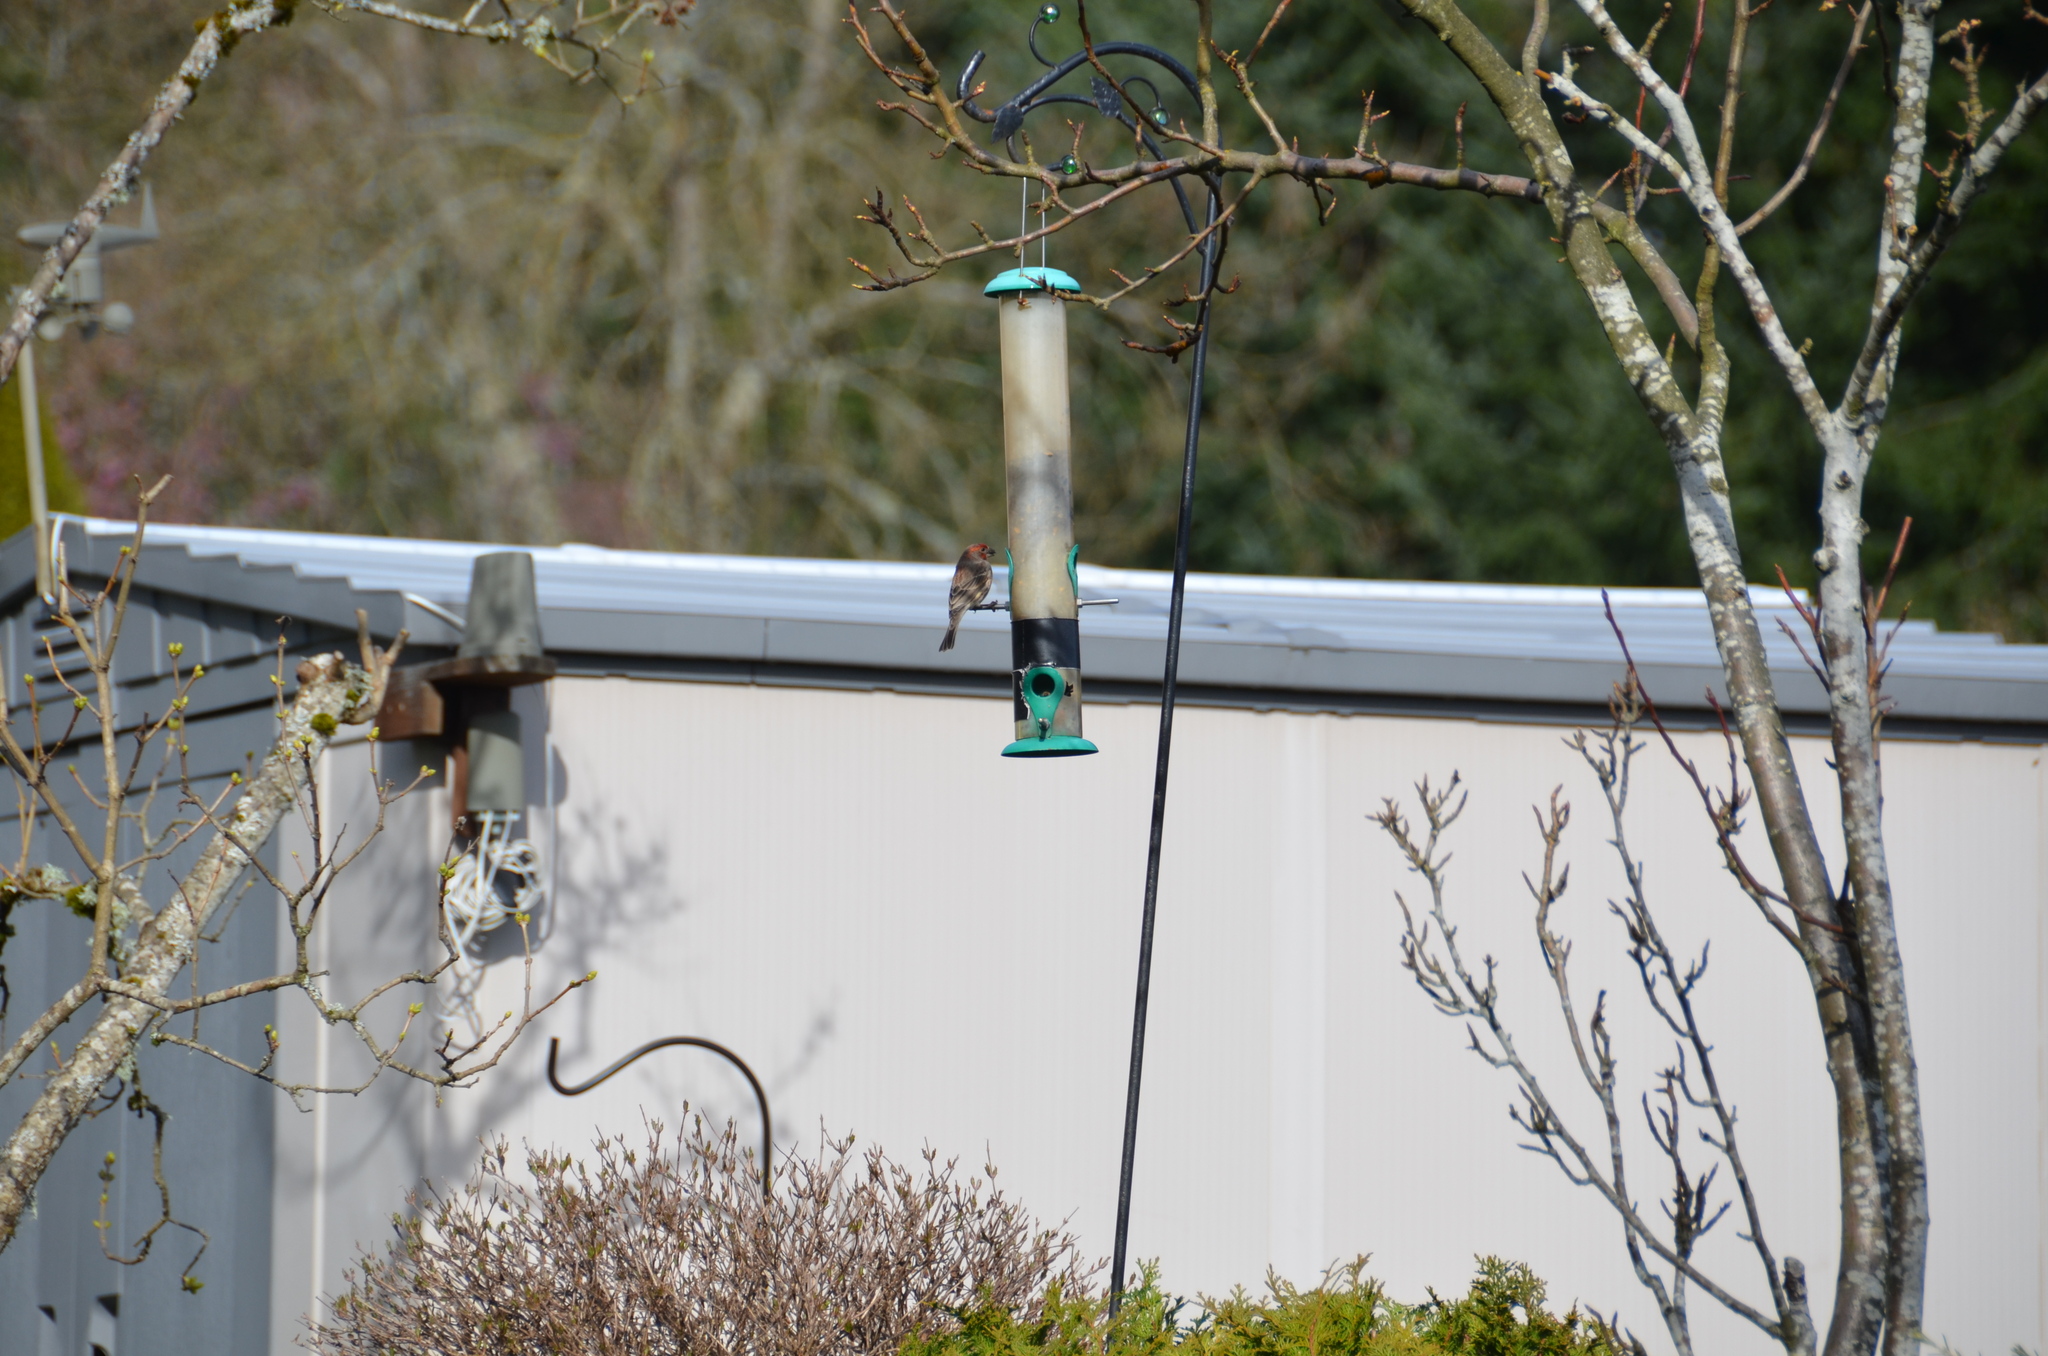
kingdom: Animalia
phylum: Chordata
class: Aves
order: Passeriformes
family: Fringillidae
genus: Haemorhous
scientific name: Haemorhous mexicanus
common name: House finch
